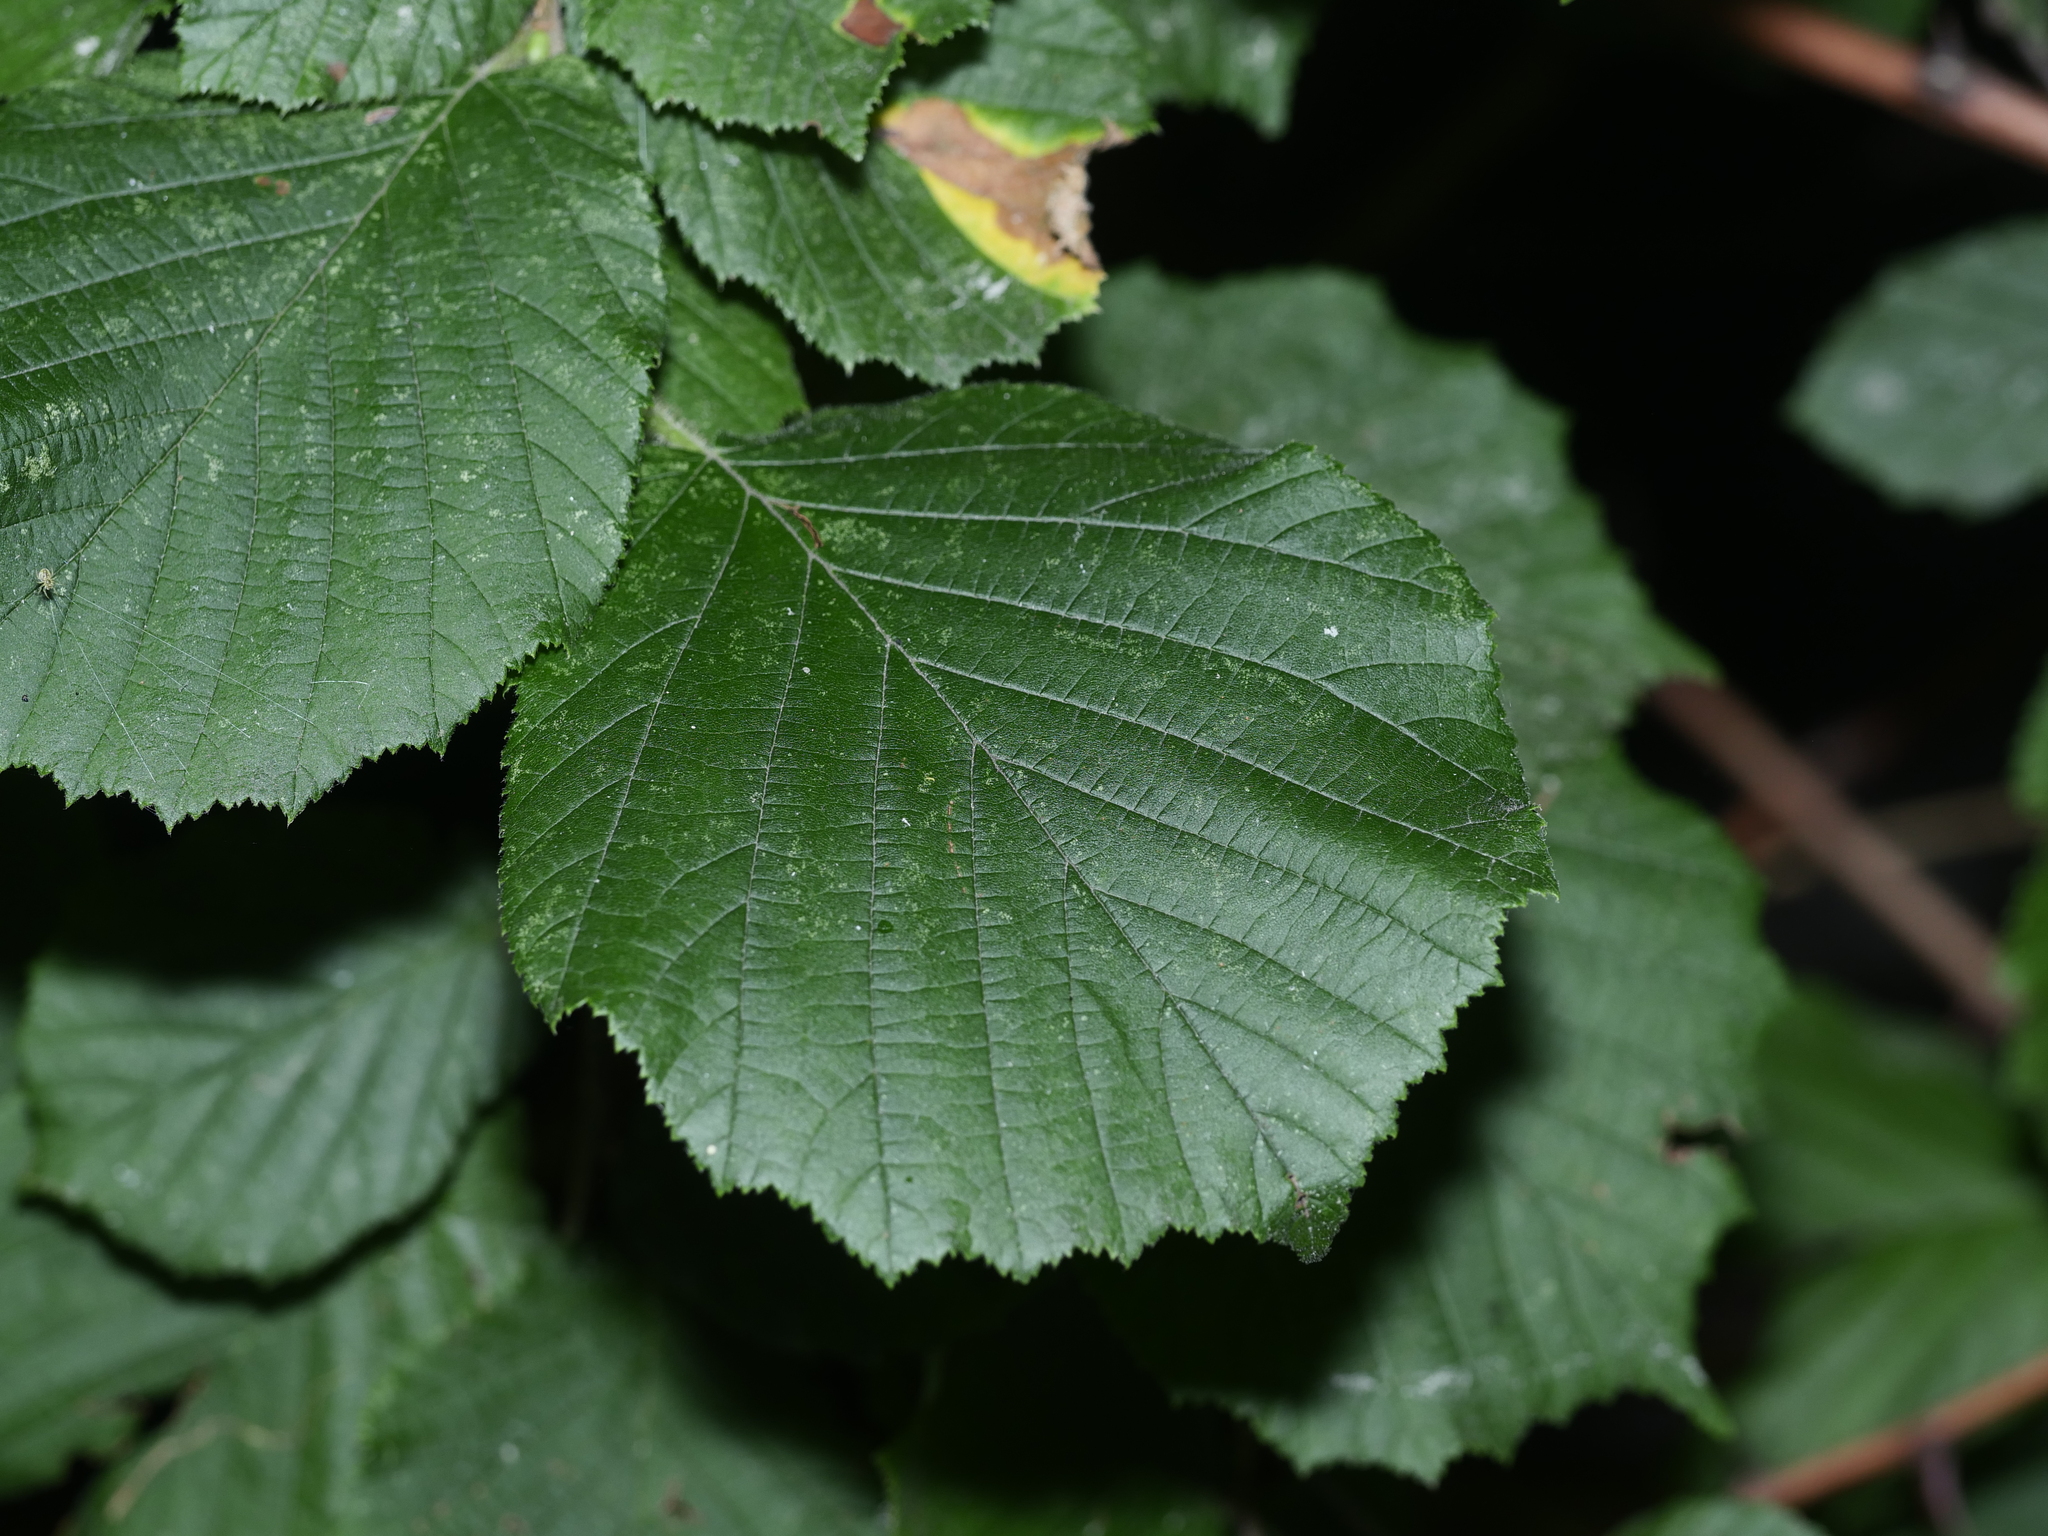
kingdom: Plantae
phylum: Tracheophyta
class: Magnoliopsida
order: Fagales
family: Betulaceae
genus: Corylus
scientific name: Corylus avellana
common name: European hazel
